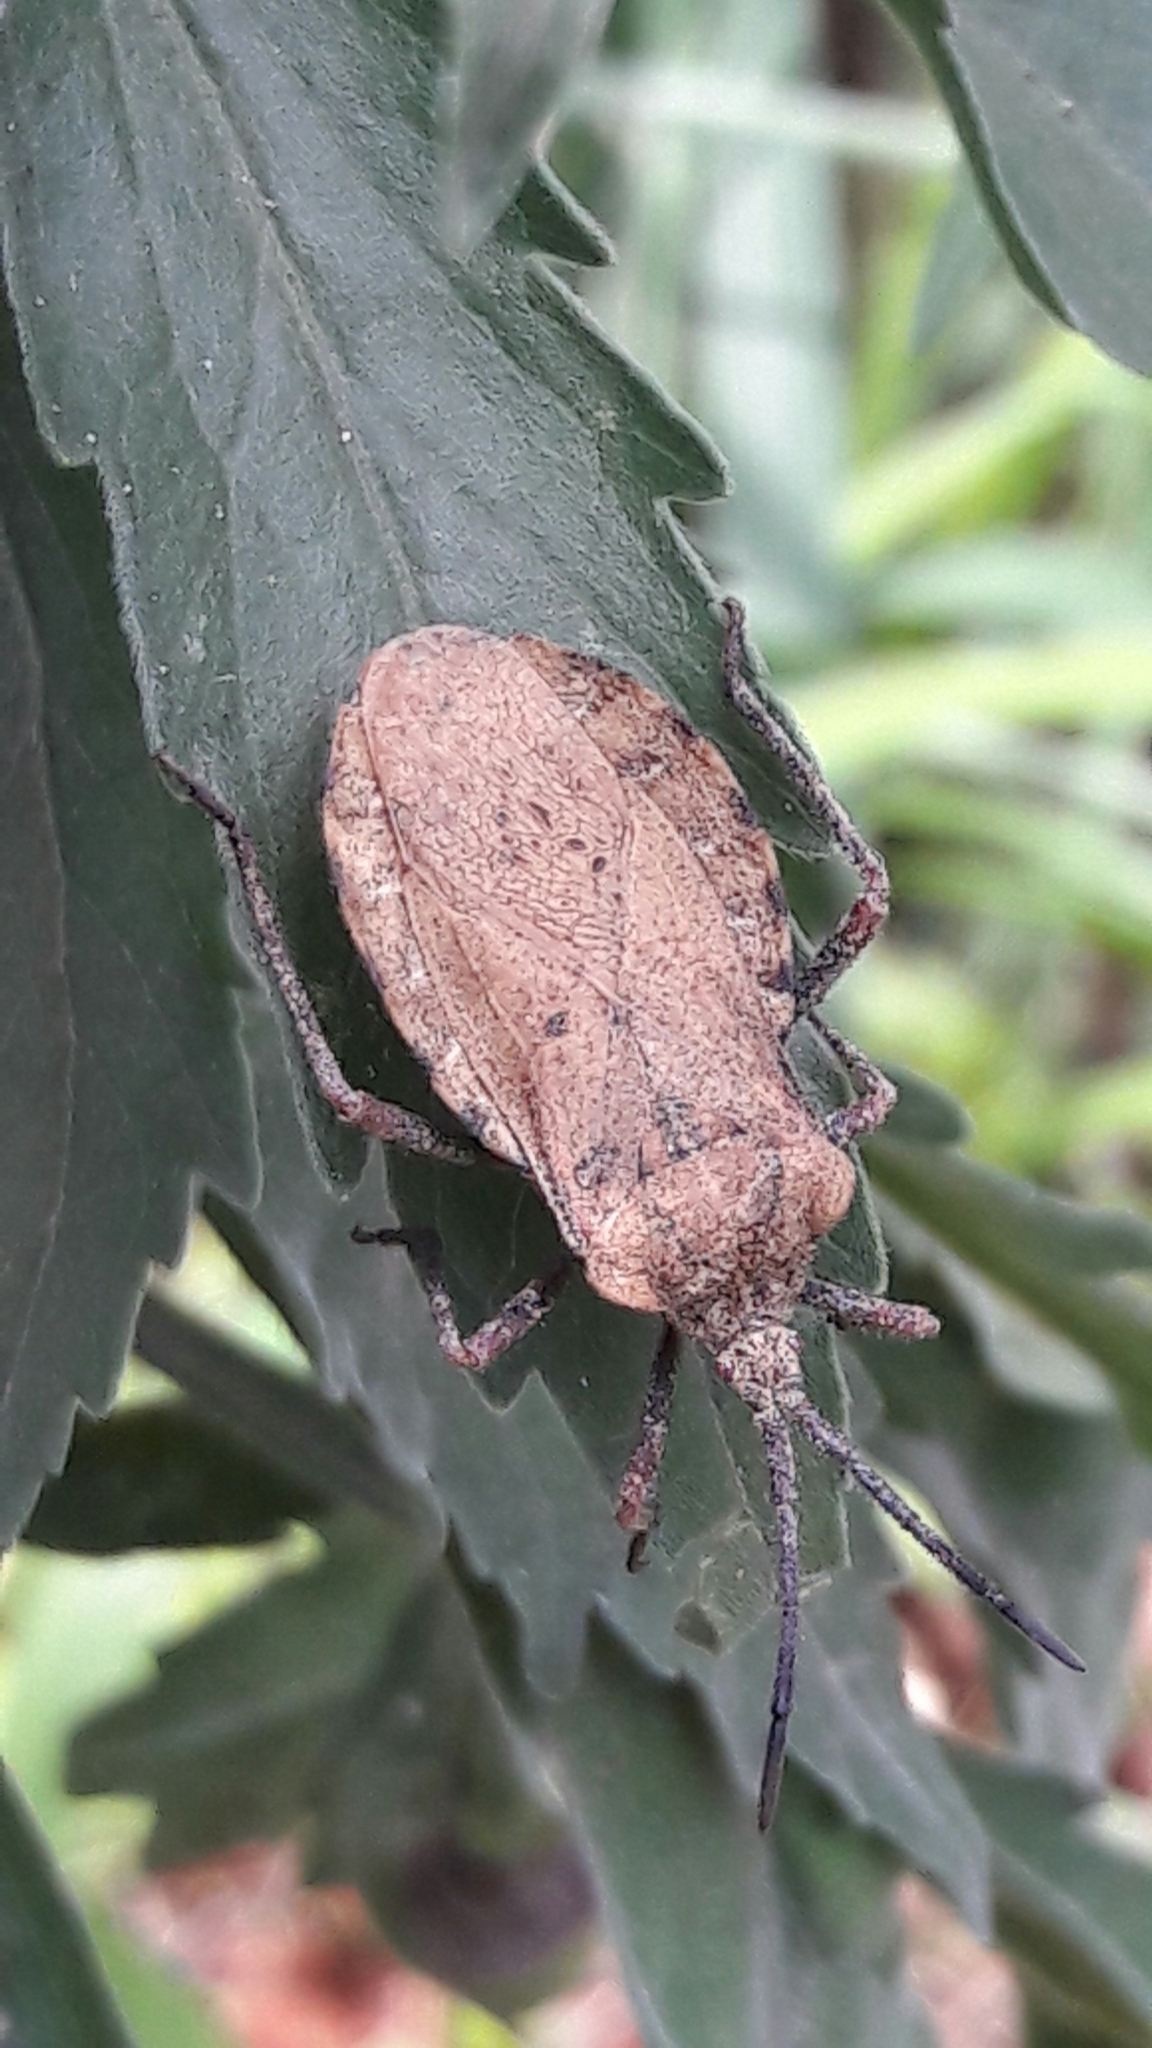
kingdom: Animalia
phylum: Arthropoda
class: Insecta
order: Hemiptera
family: Coreidae
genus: Spartocera
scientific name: Spartocera fusca
